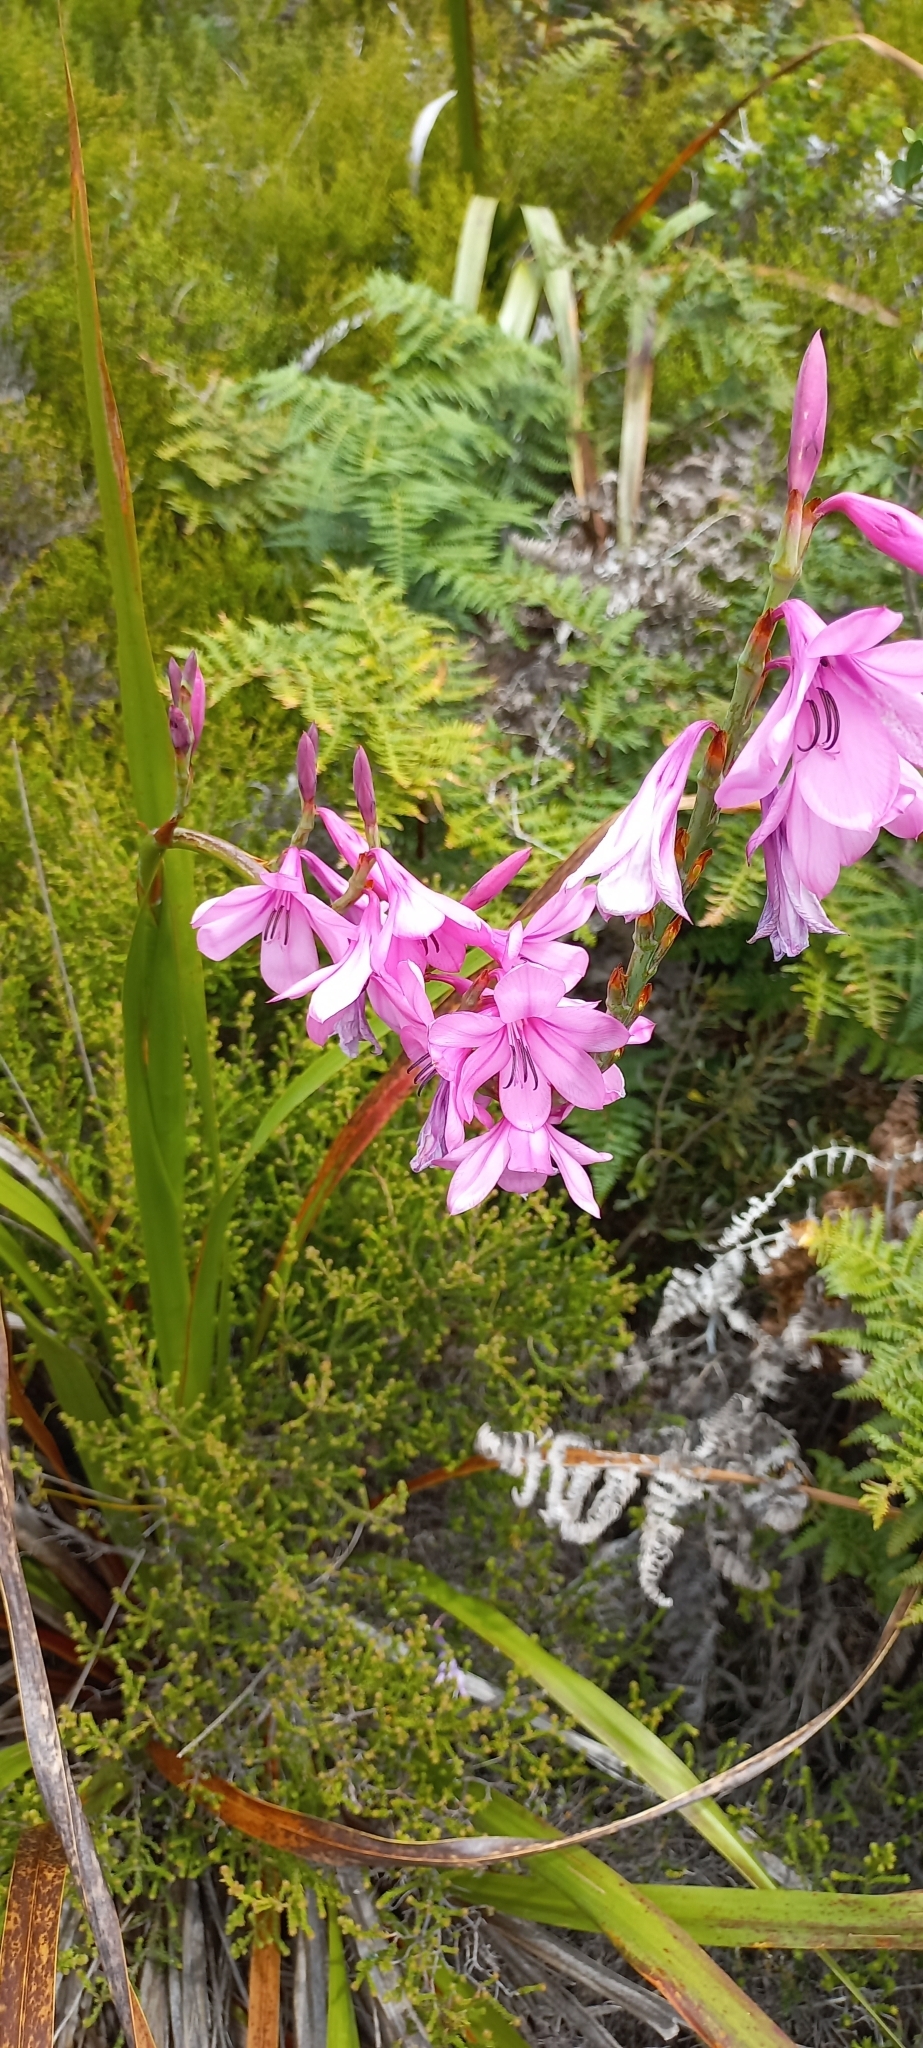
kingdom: Plantae
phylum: Tracheophyta
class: Liliopsida
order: Asparagales
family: Iridaceae
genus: Watsonia
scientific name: Watsonia borbonica
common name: Bugle-lily
